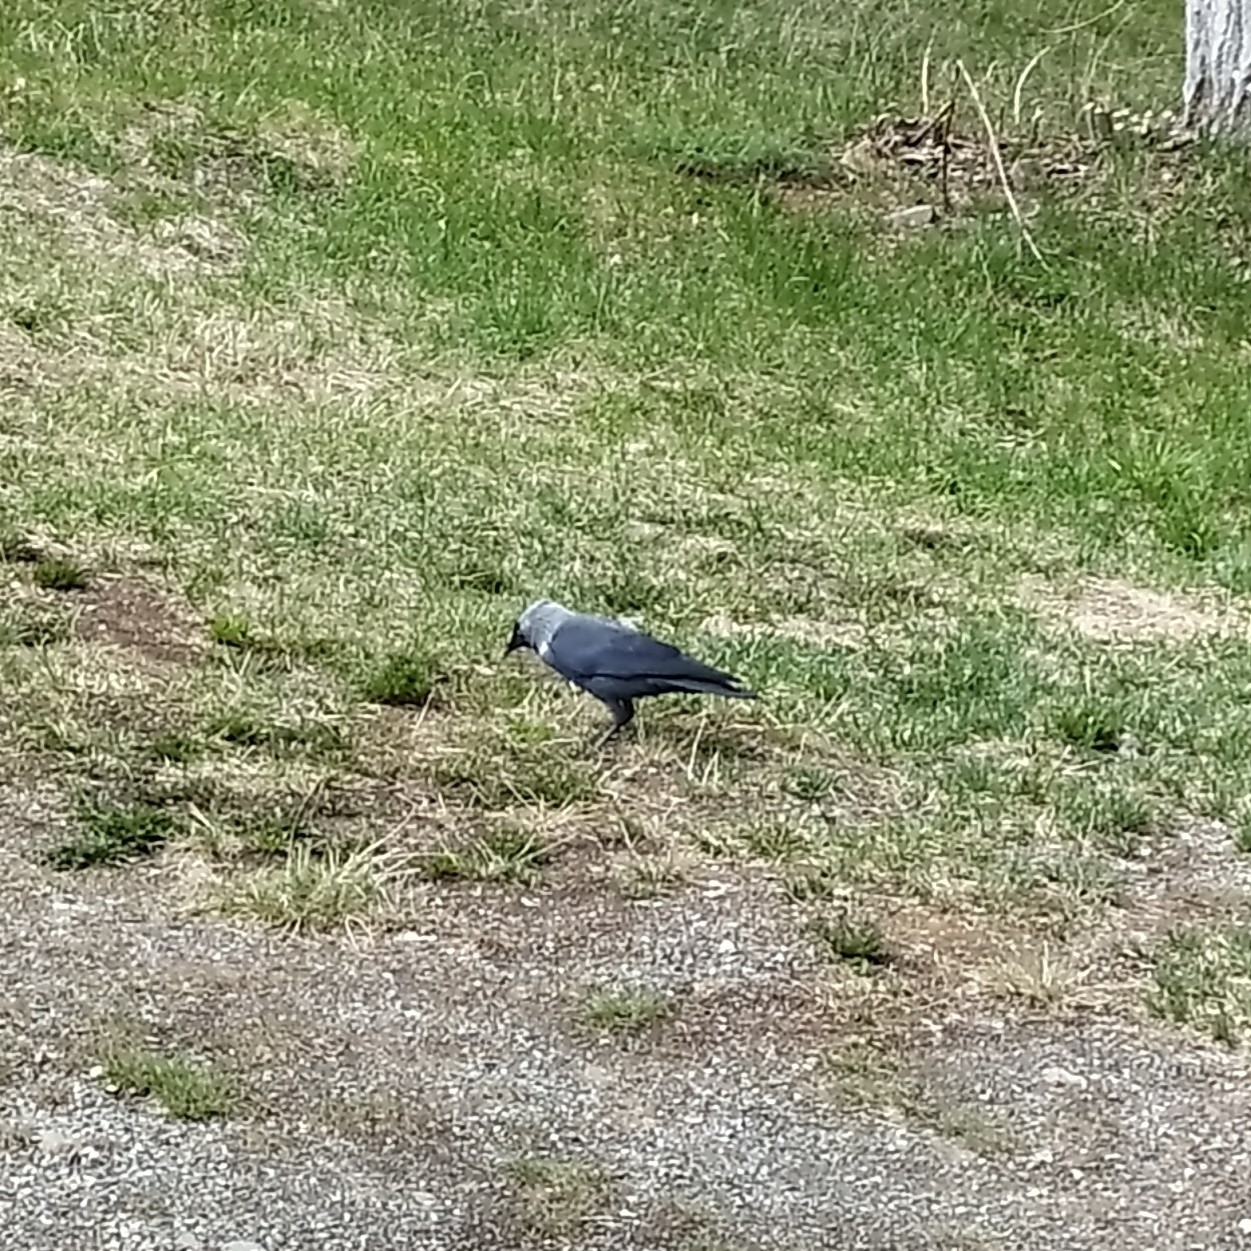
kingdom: Animalia
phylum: Chordata
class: Aves
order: Passeriformes
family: Corvidae
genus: Coloeus
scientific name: Coloeus monedula
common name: Western jackdaw
